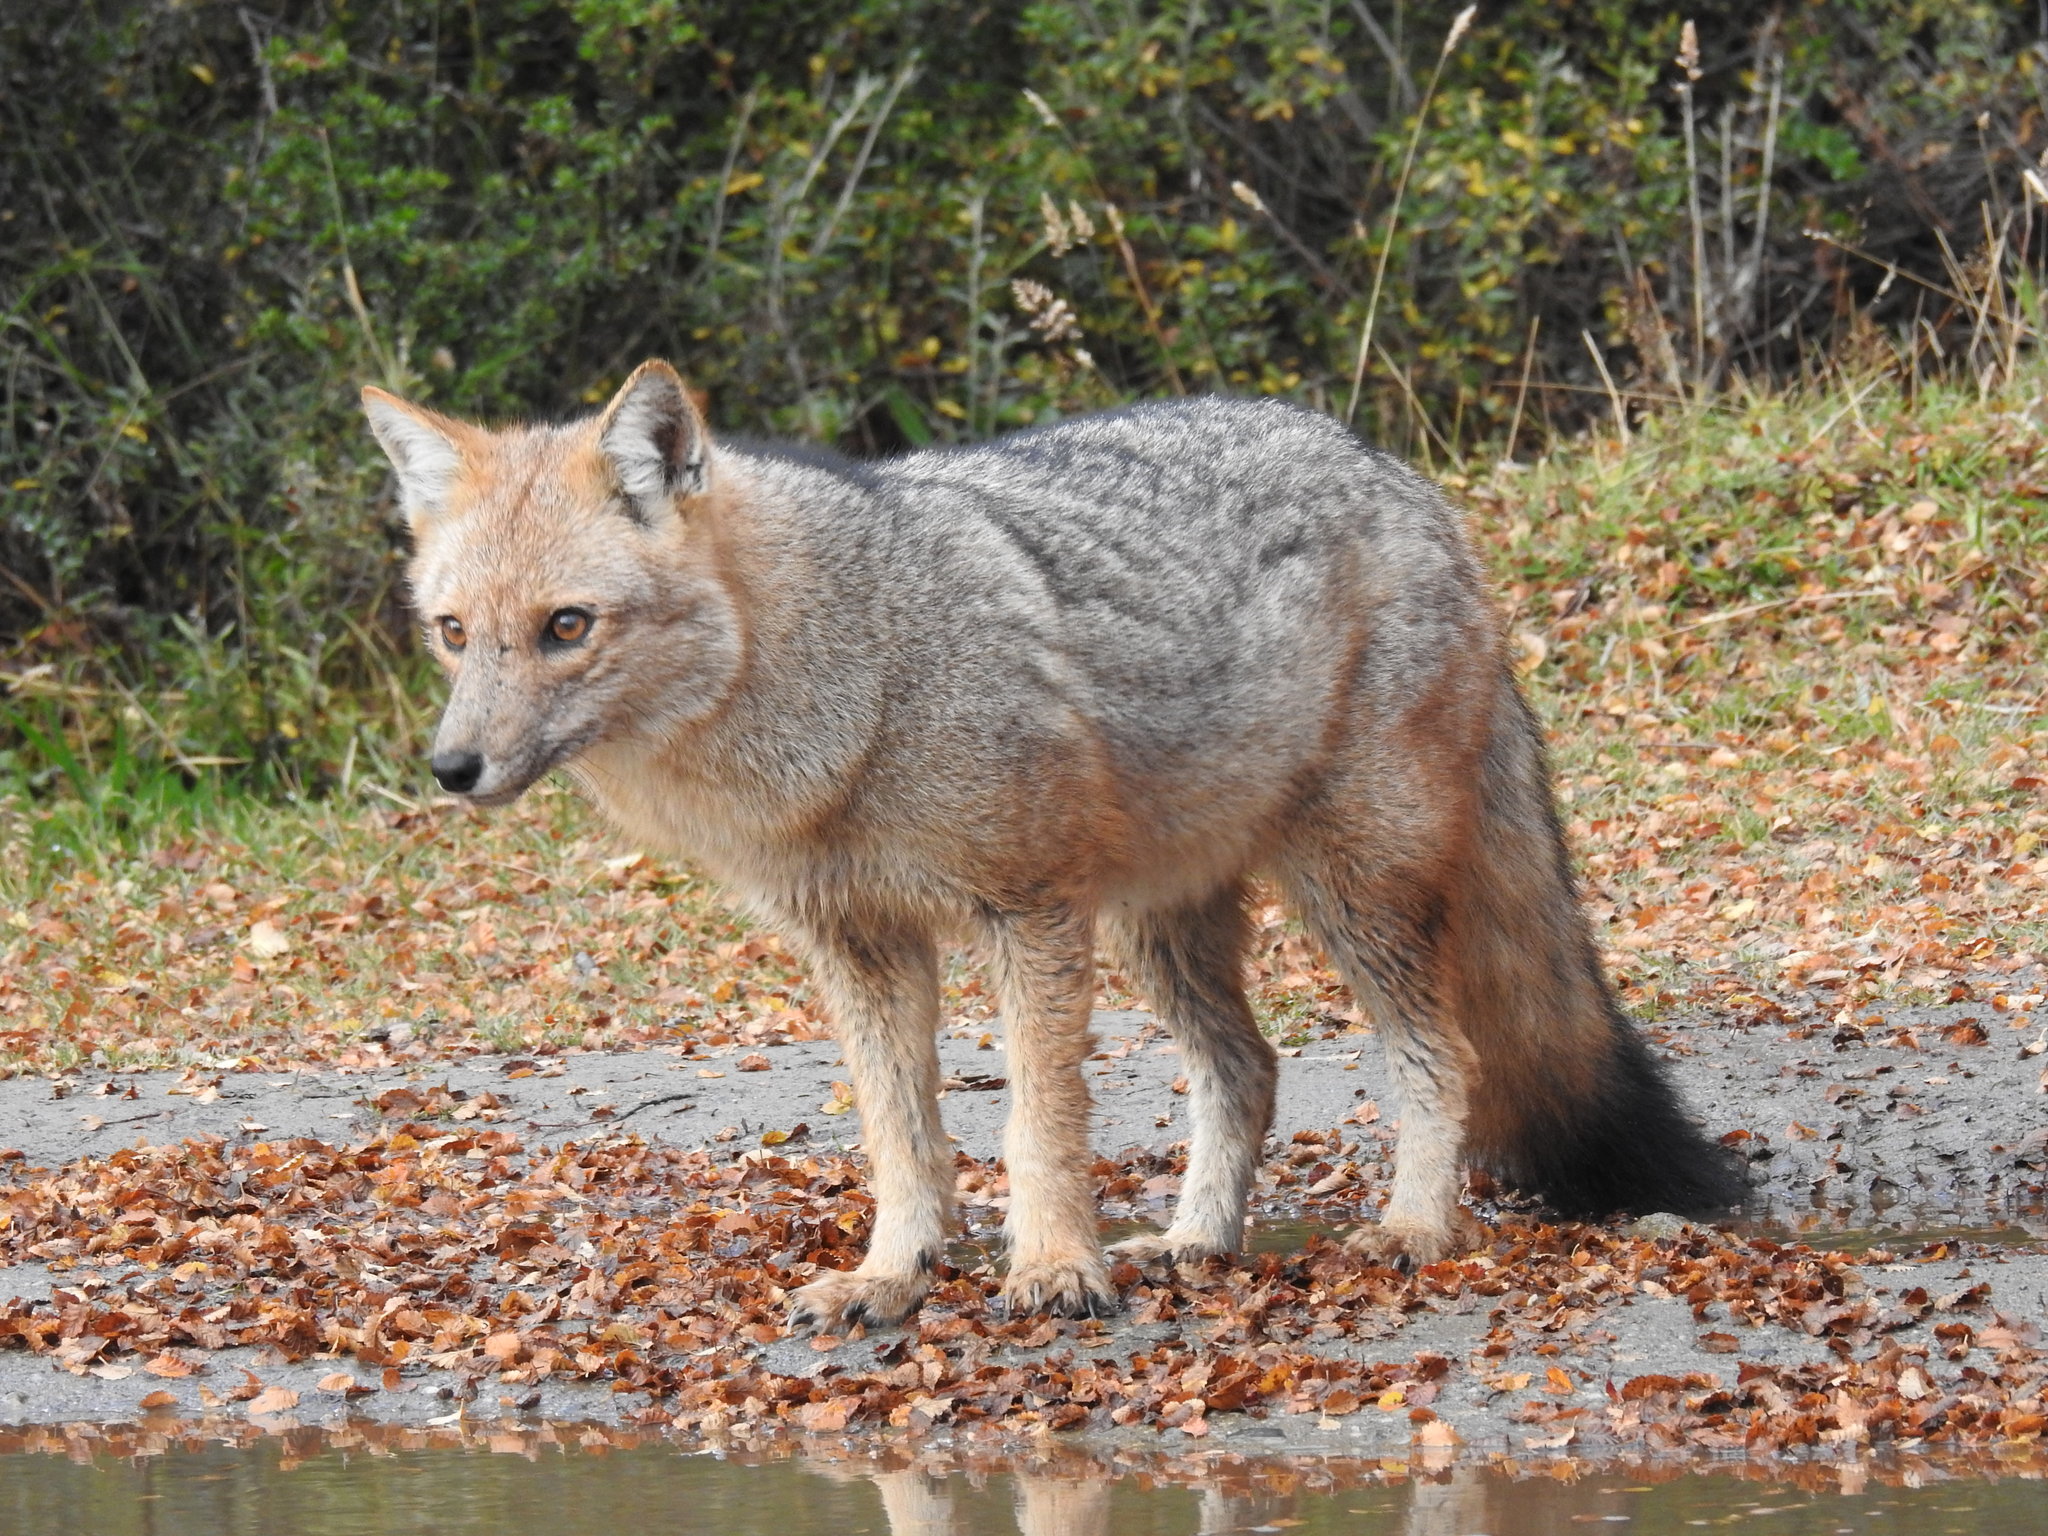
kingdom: Animalia
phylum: Chordata
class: Mammalia
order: Carnivora
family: Canidae
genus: Lycalopex
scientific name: Lycalopex culpaeus
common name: Culpeo
